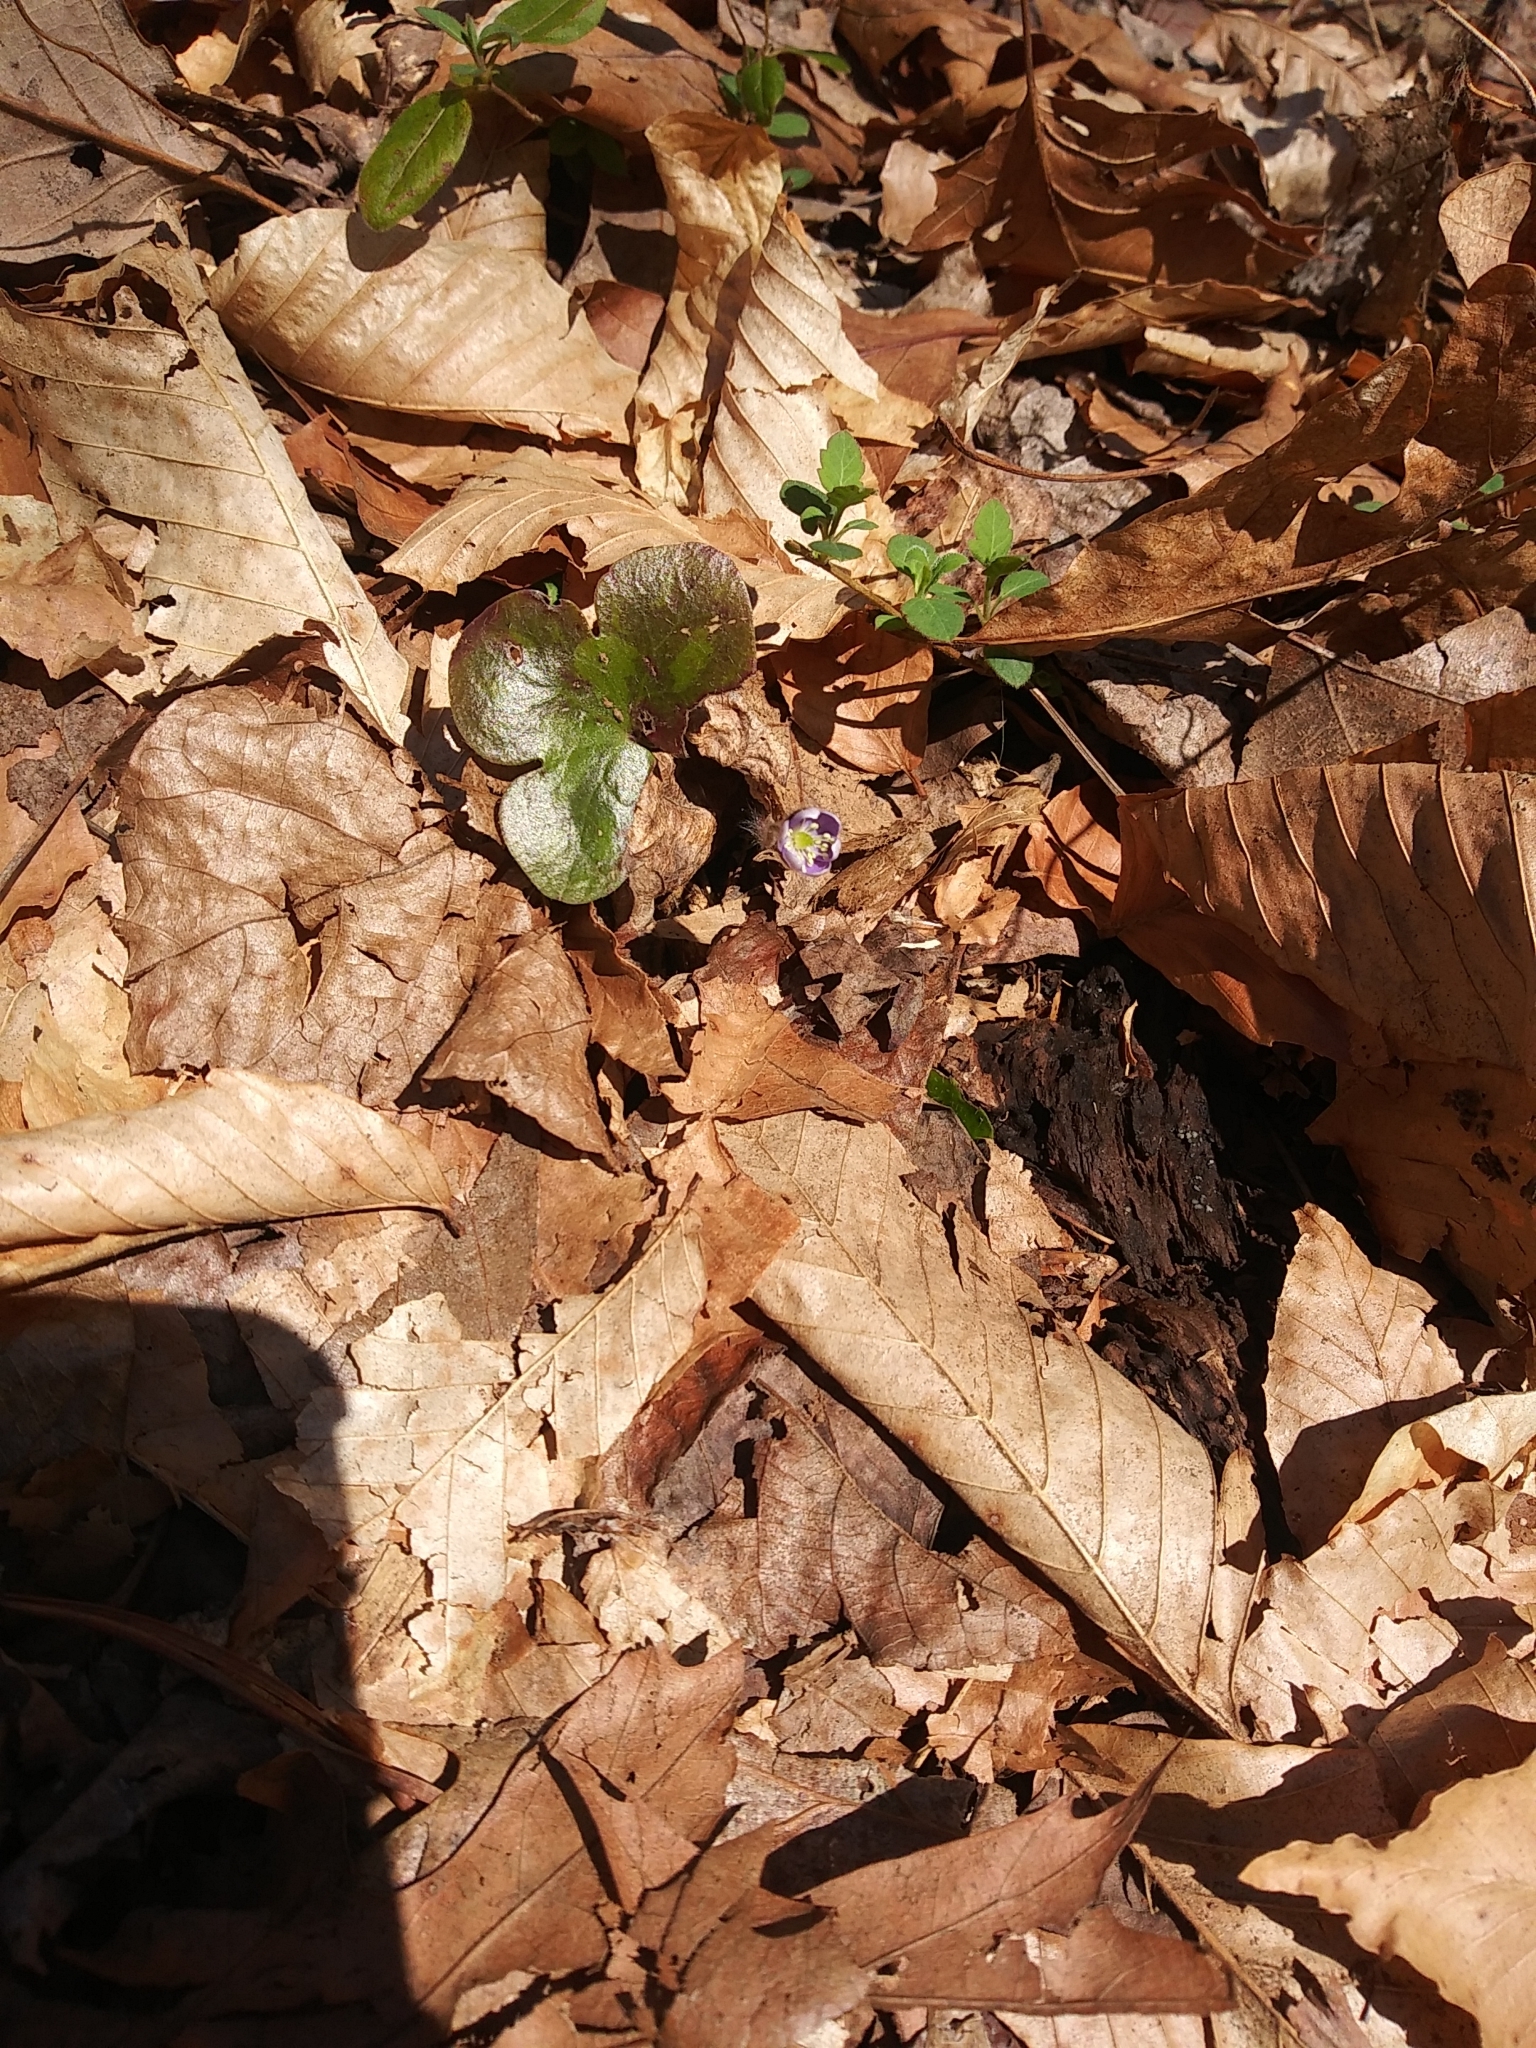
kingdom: Plantae
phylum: Tracheophyta
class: Magnoliopsida
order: Ranunculales
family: Ranunculaceae
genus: Hepatica
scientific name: Hepatica americana
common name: American hepatica
